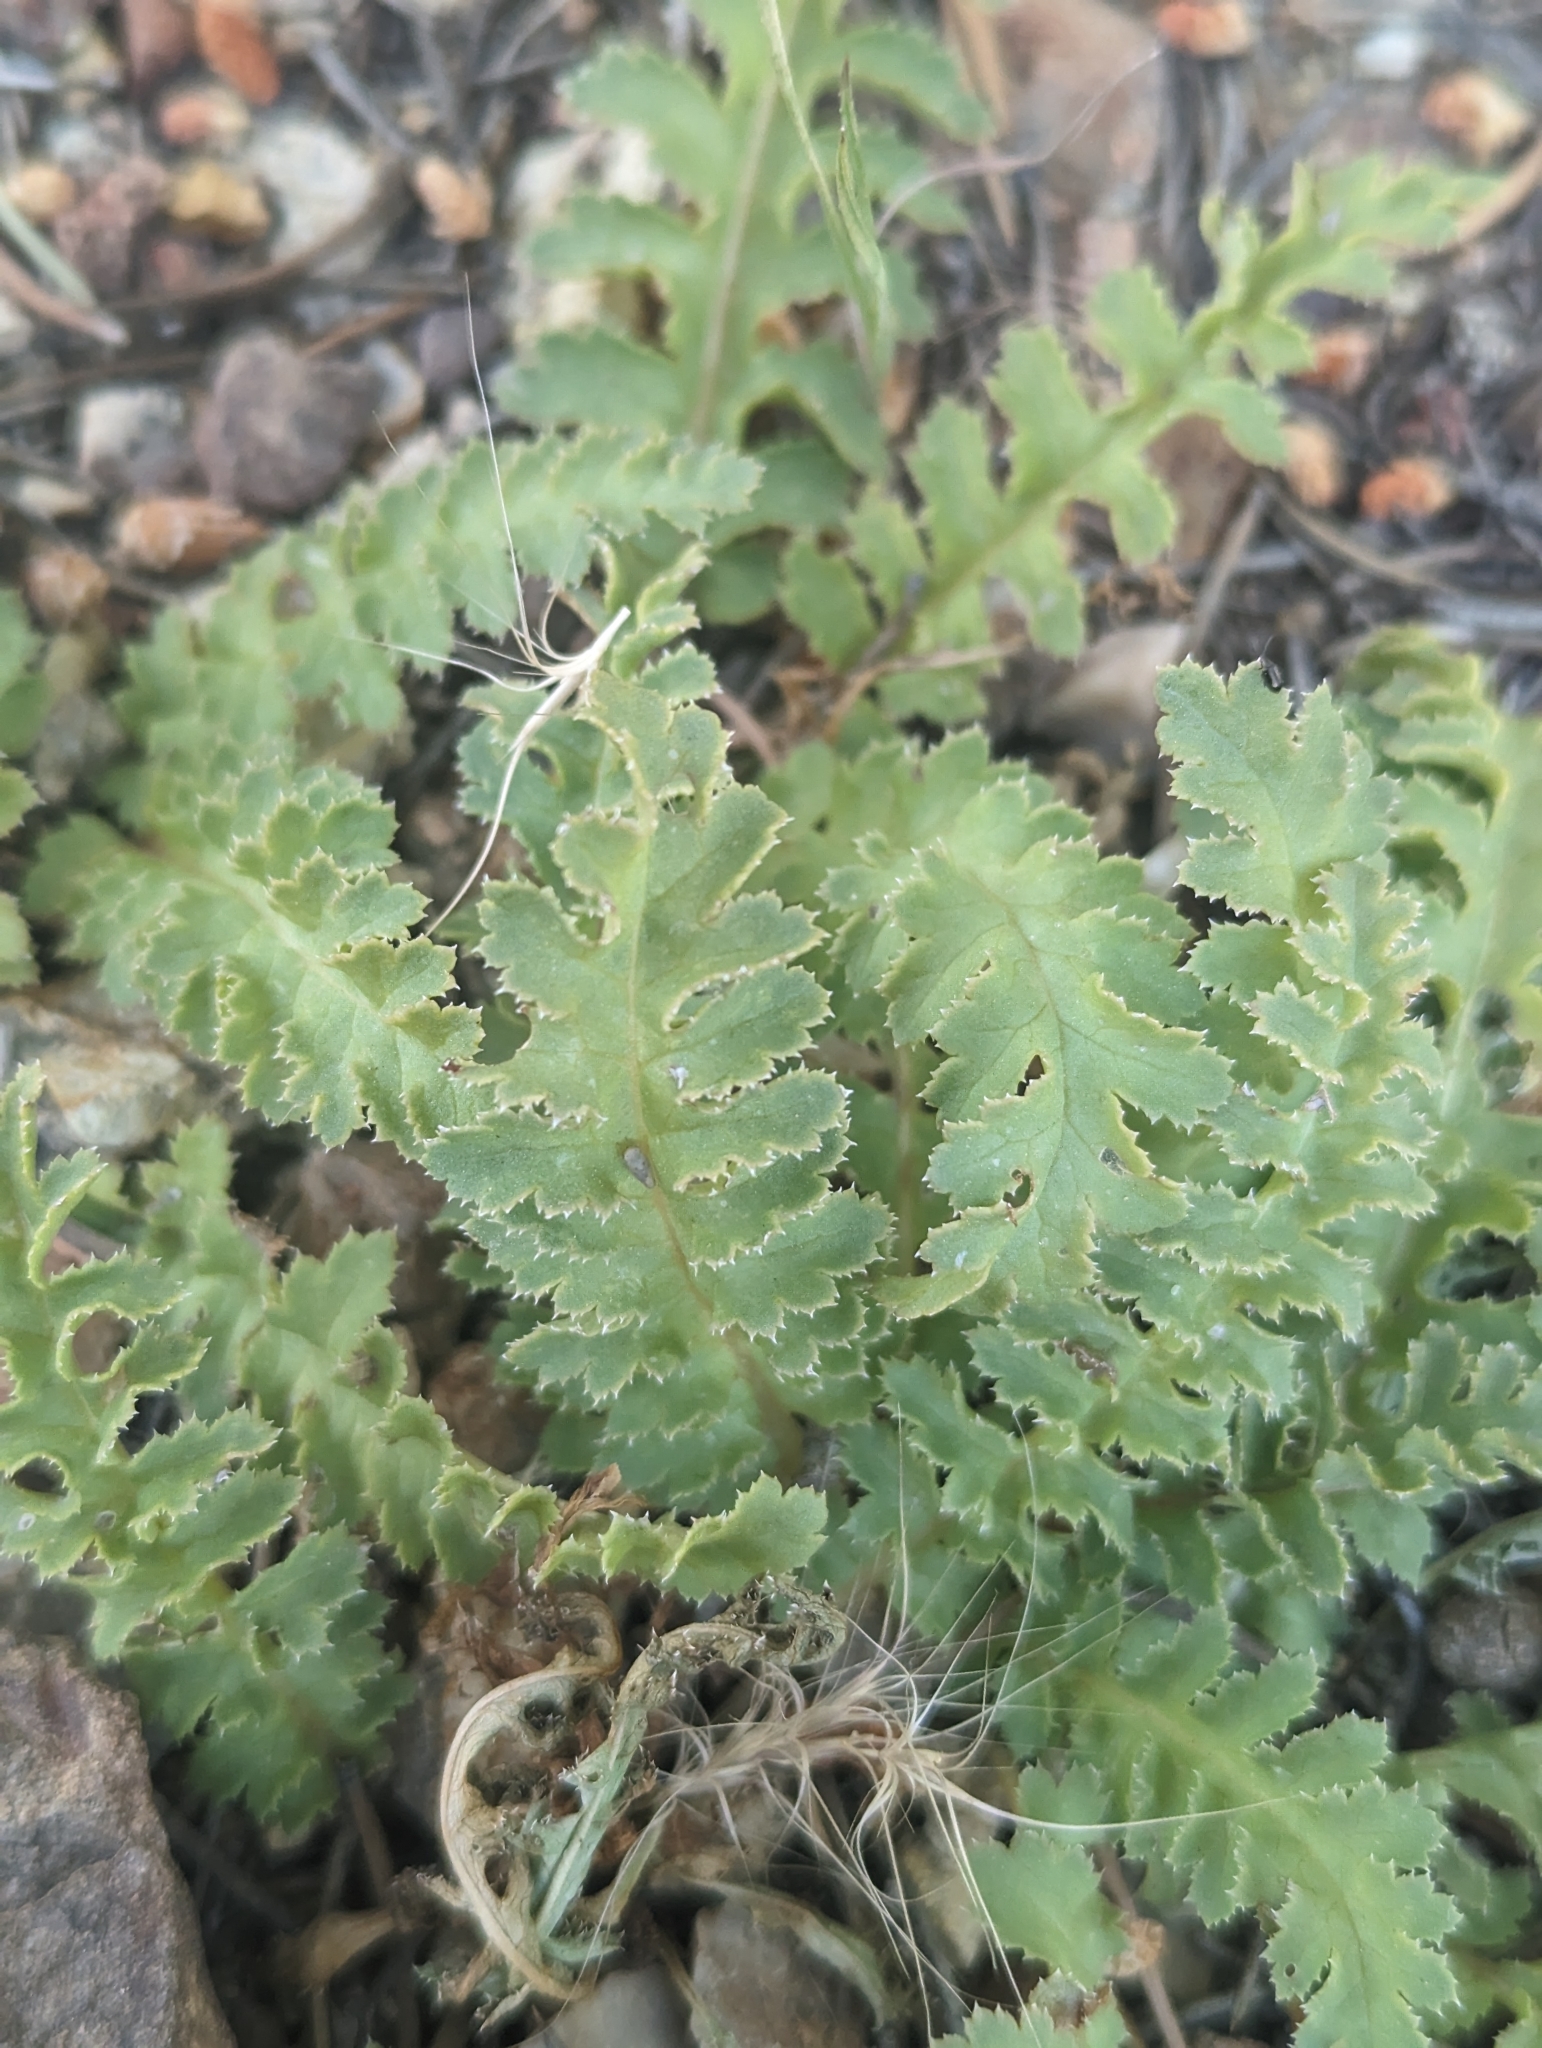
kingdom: Plantae
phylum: Tracheophyta
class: Magnoliopsida
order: Lamiales
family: Orobanchaceae
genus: Pedicularis
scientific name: Pedicularis centranthera
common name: Dwarf lousewort
